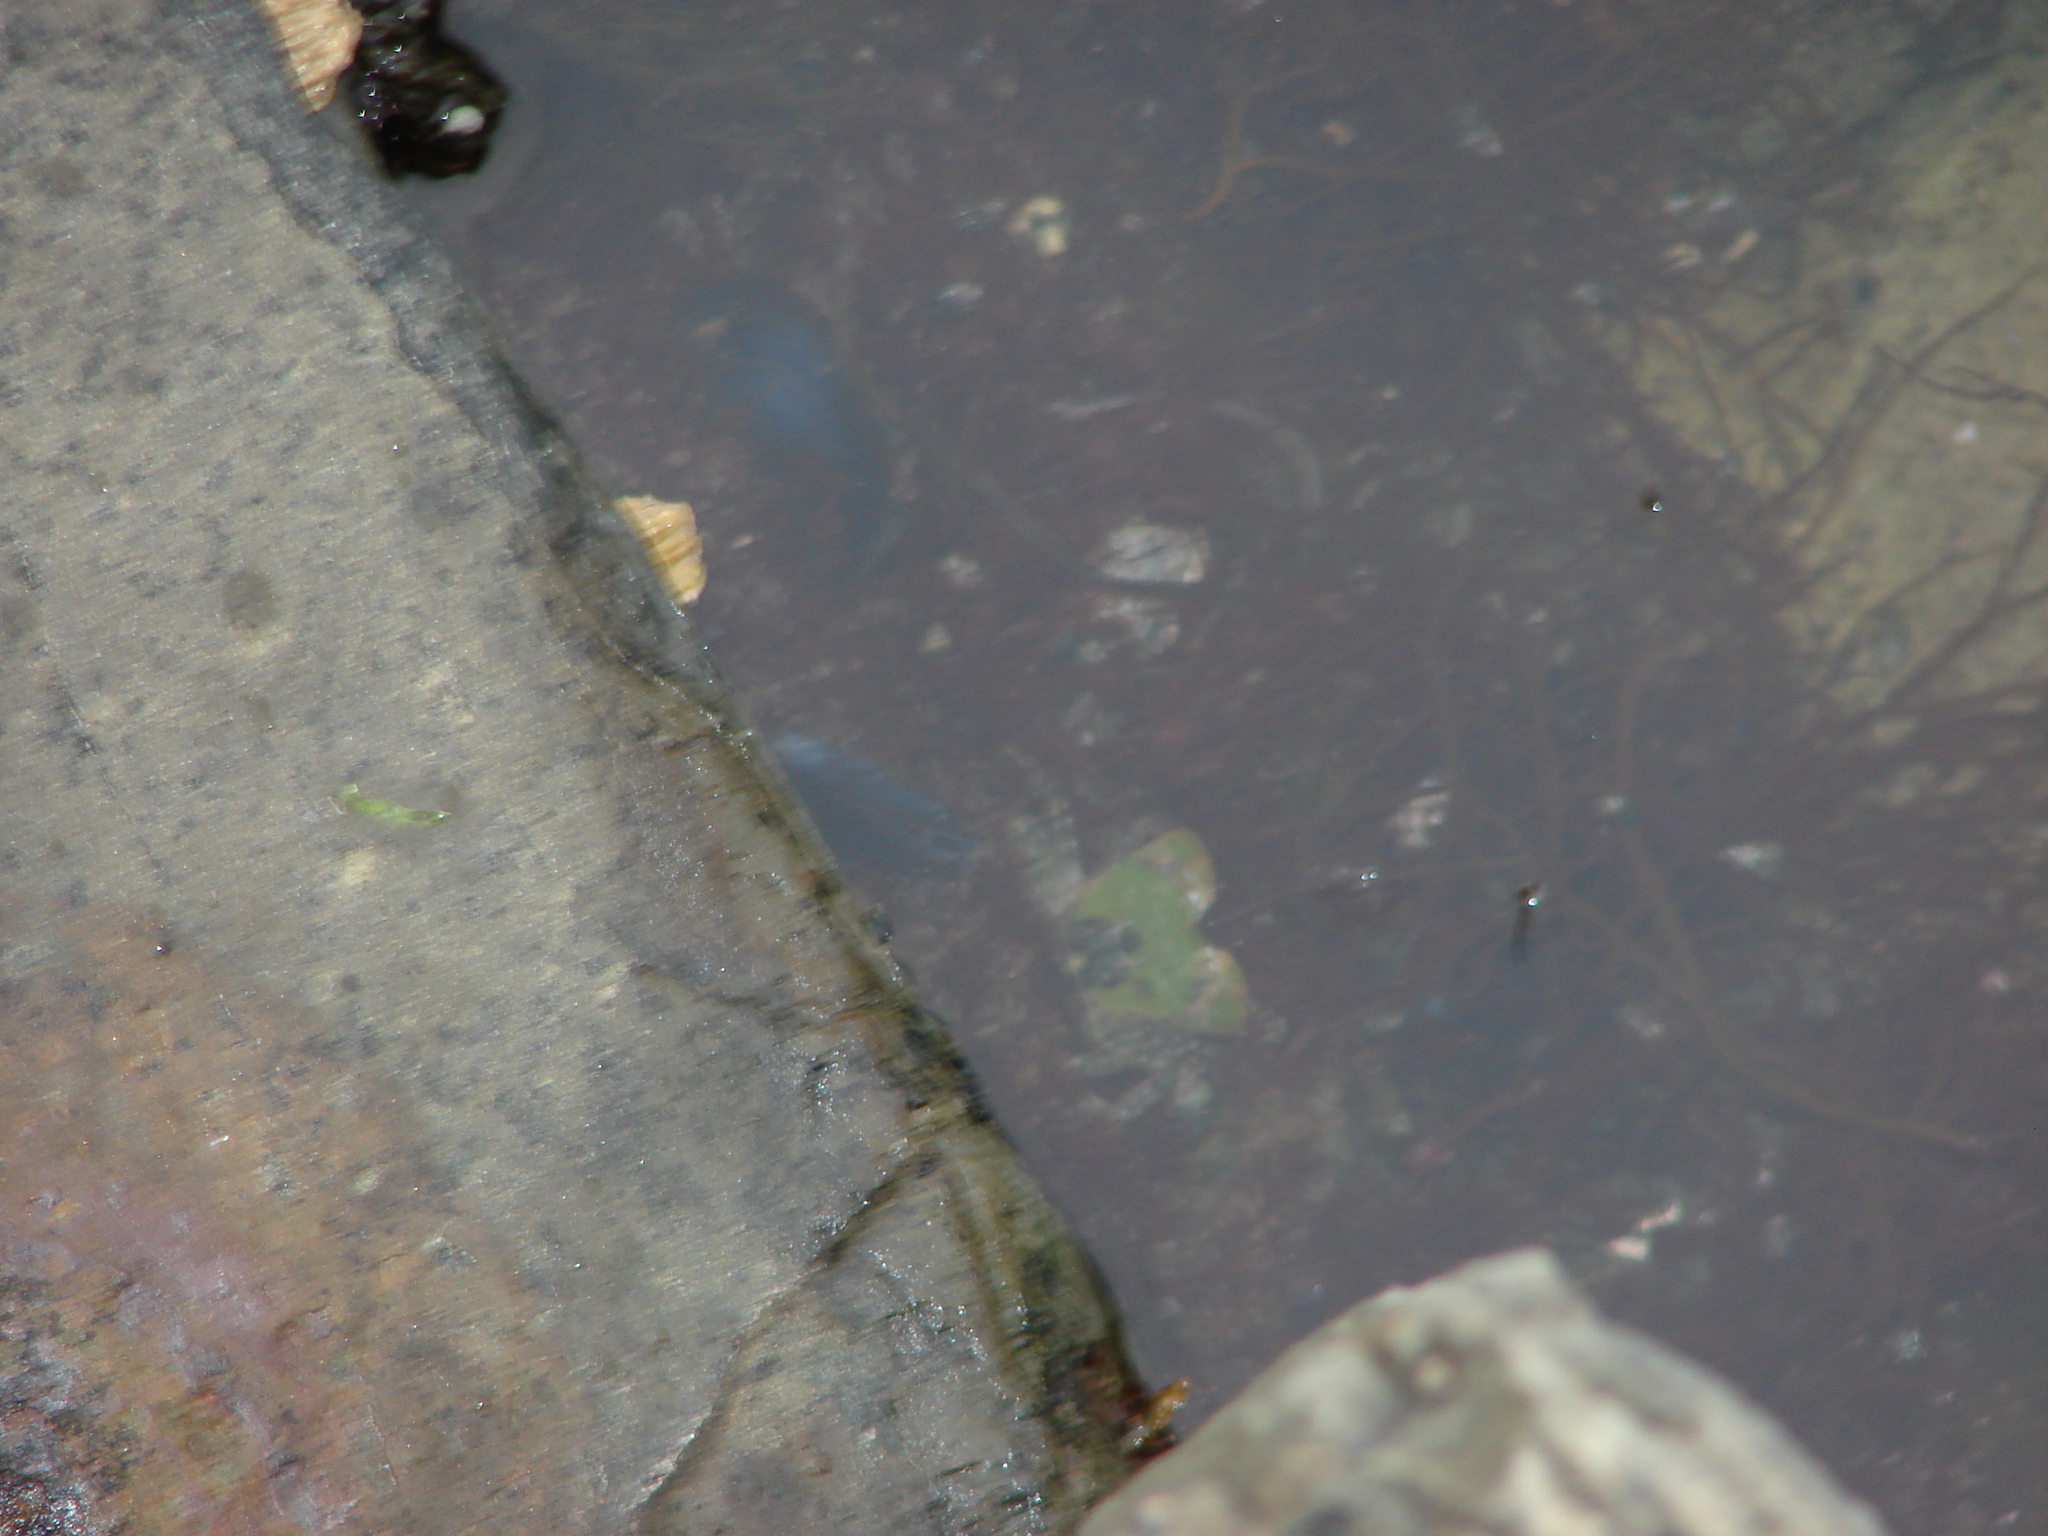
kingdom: Animalia
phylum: Arthropoda
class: Malacostraca
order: Decapoda
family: Varunidae
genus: Hemigrapsus
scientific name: Hemigrapsus oregonensis
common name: Yellow shore crab
